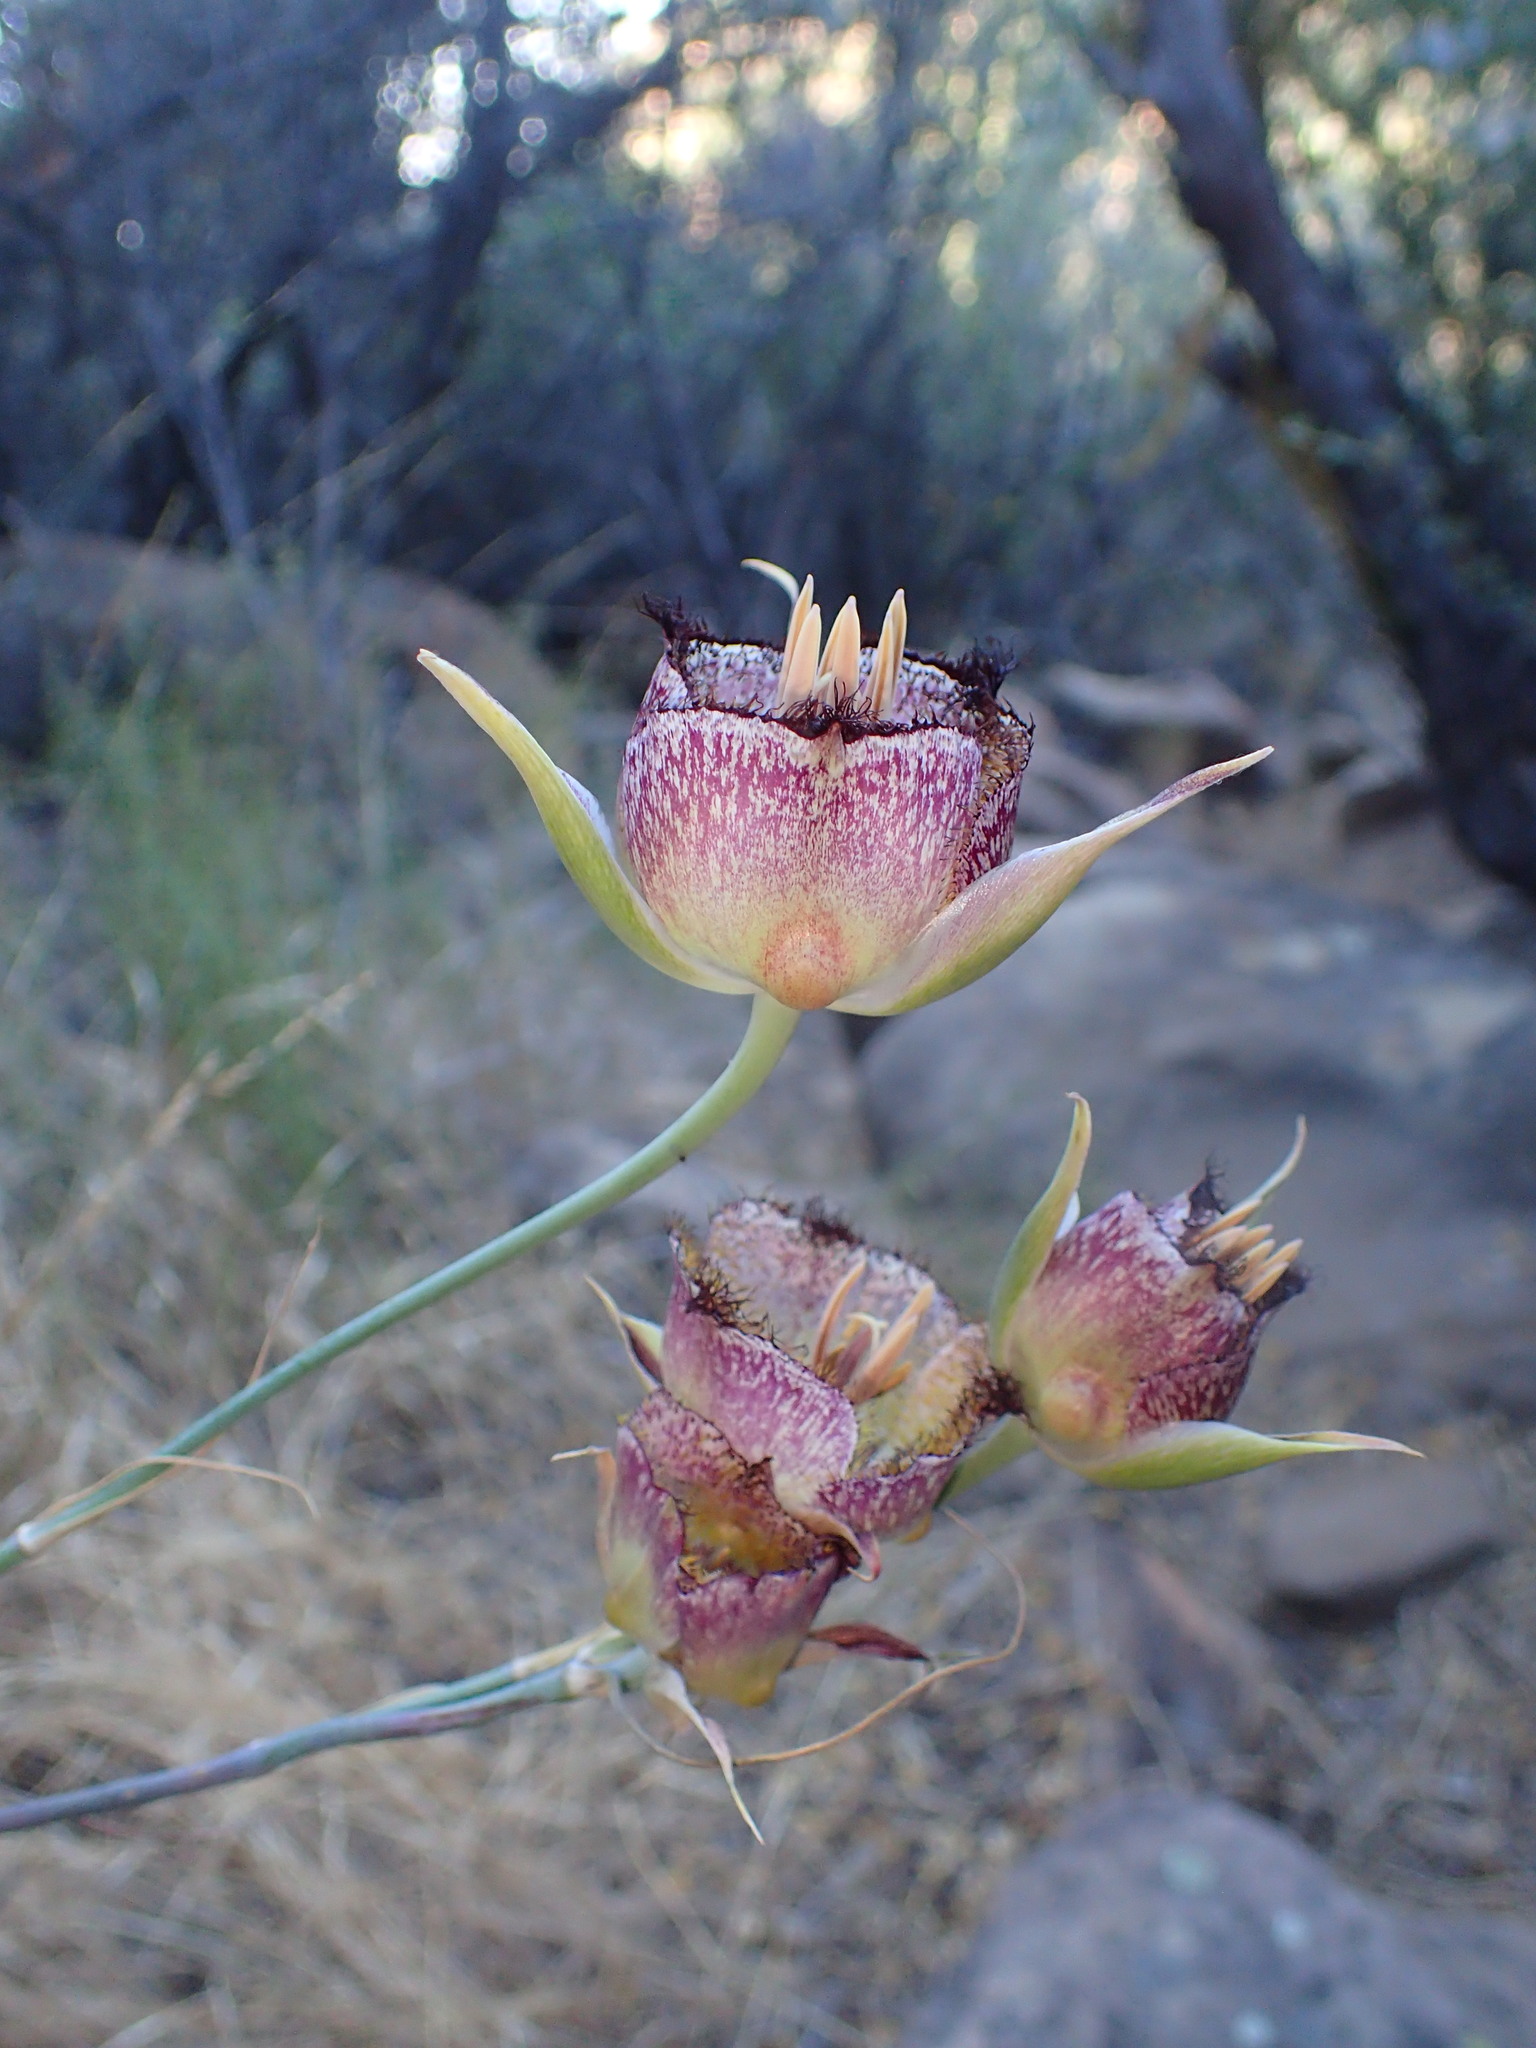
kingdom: Plantae
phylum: Tracheophyta
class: Liliopsida
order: Liliales
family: Liliaceae
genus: Calochortus
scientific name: Calochortus fimbriatus
